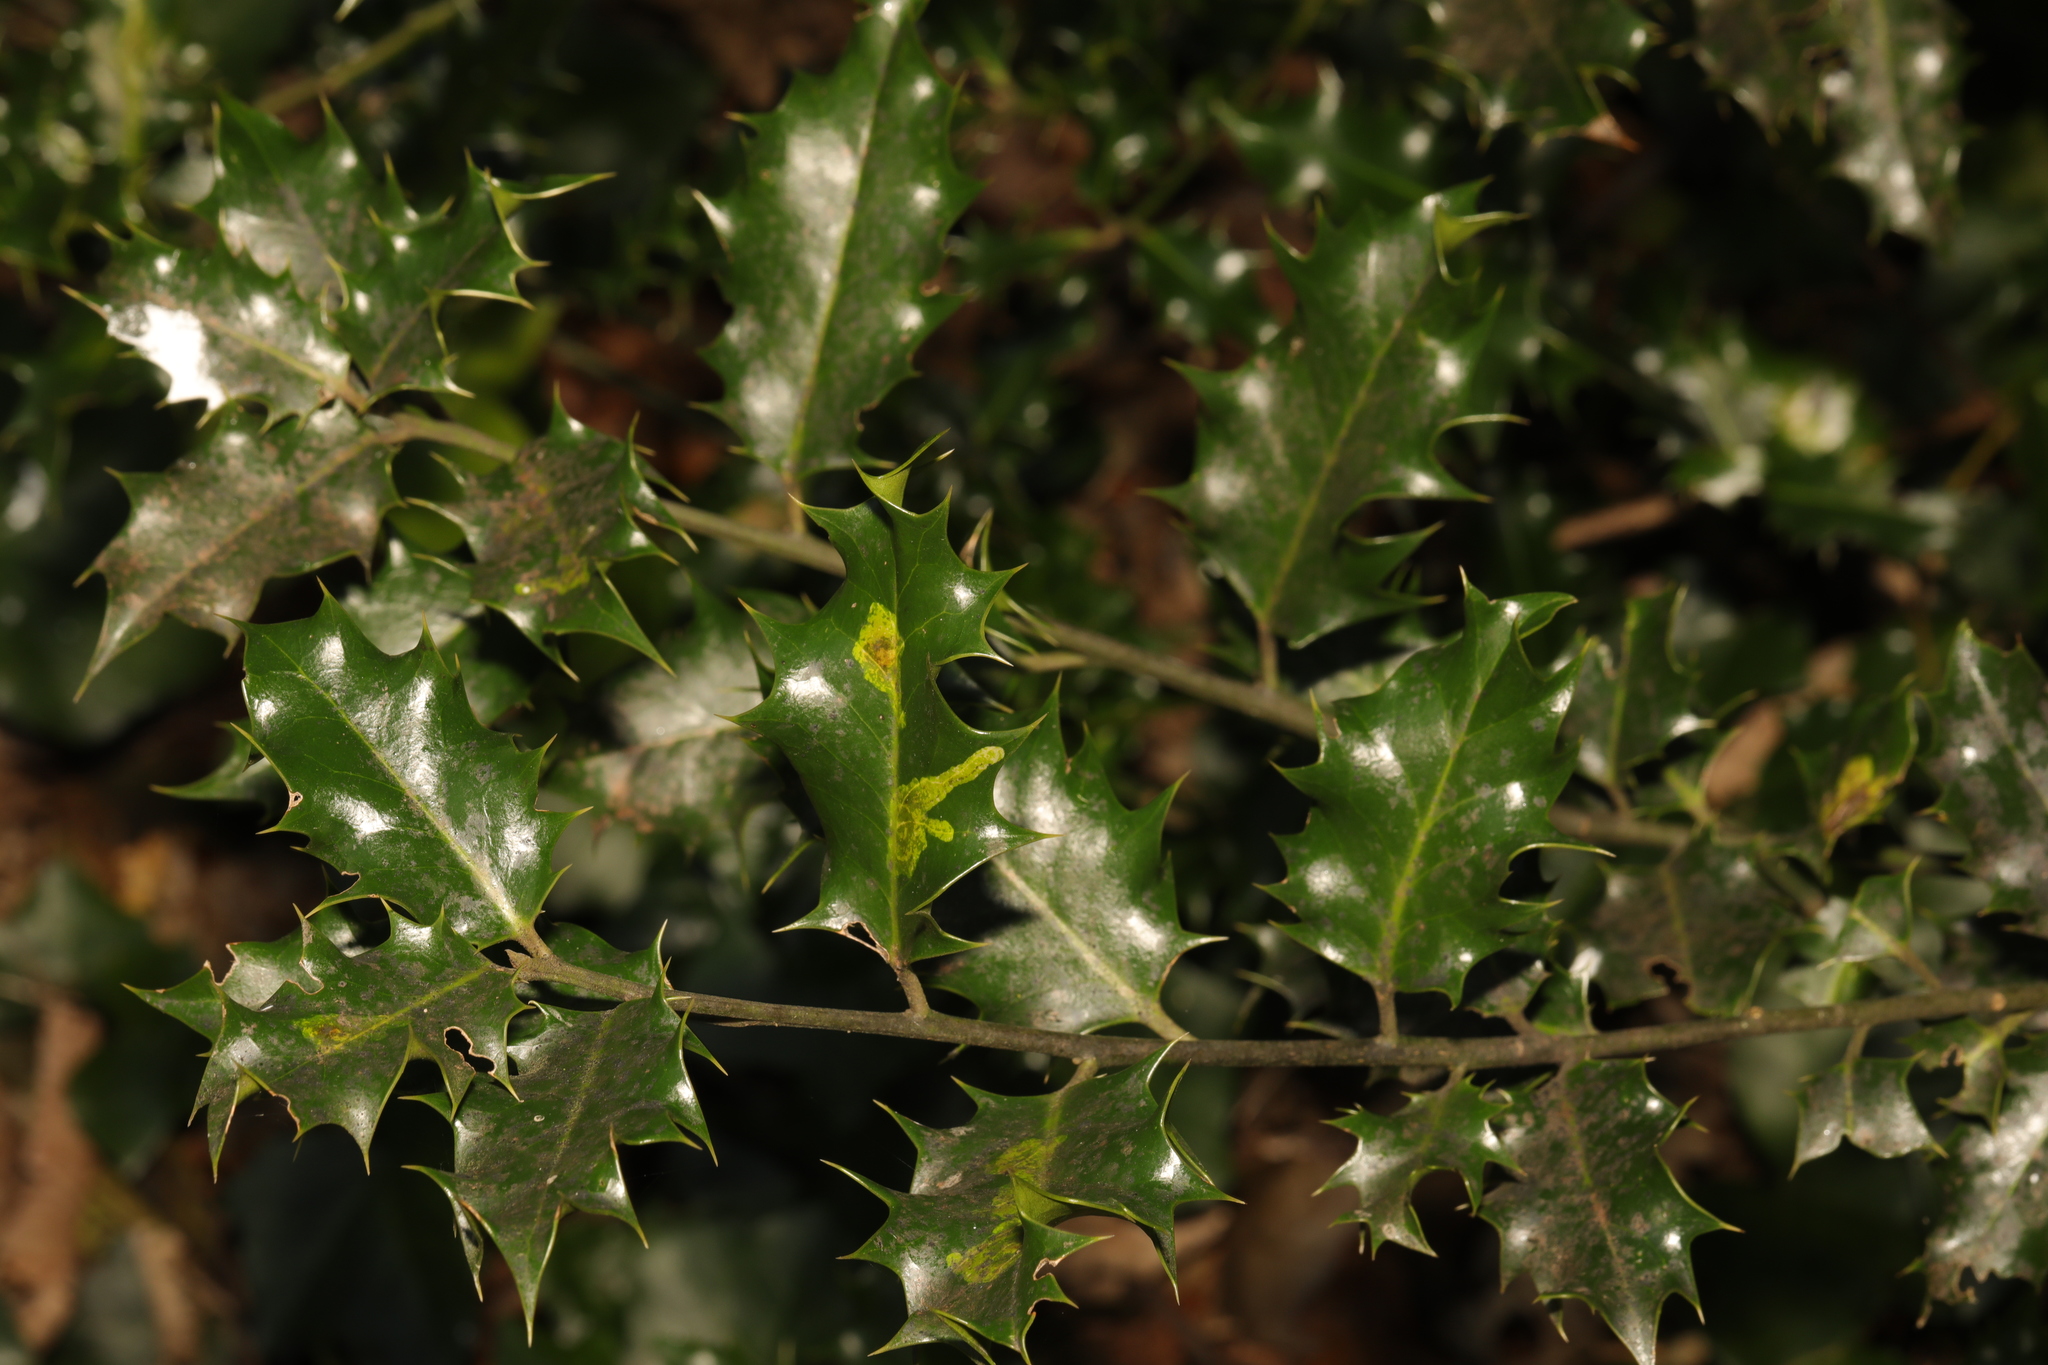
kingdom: Plantae
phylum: Tracheophyta
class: Magnoliopsida
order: Aquifoliales
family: Aquifoliaceae
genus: Ilex
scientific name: Ilex aquifolium
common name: English holly
